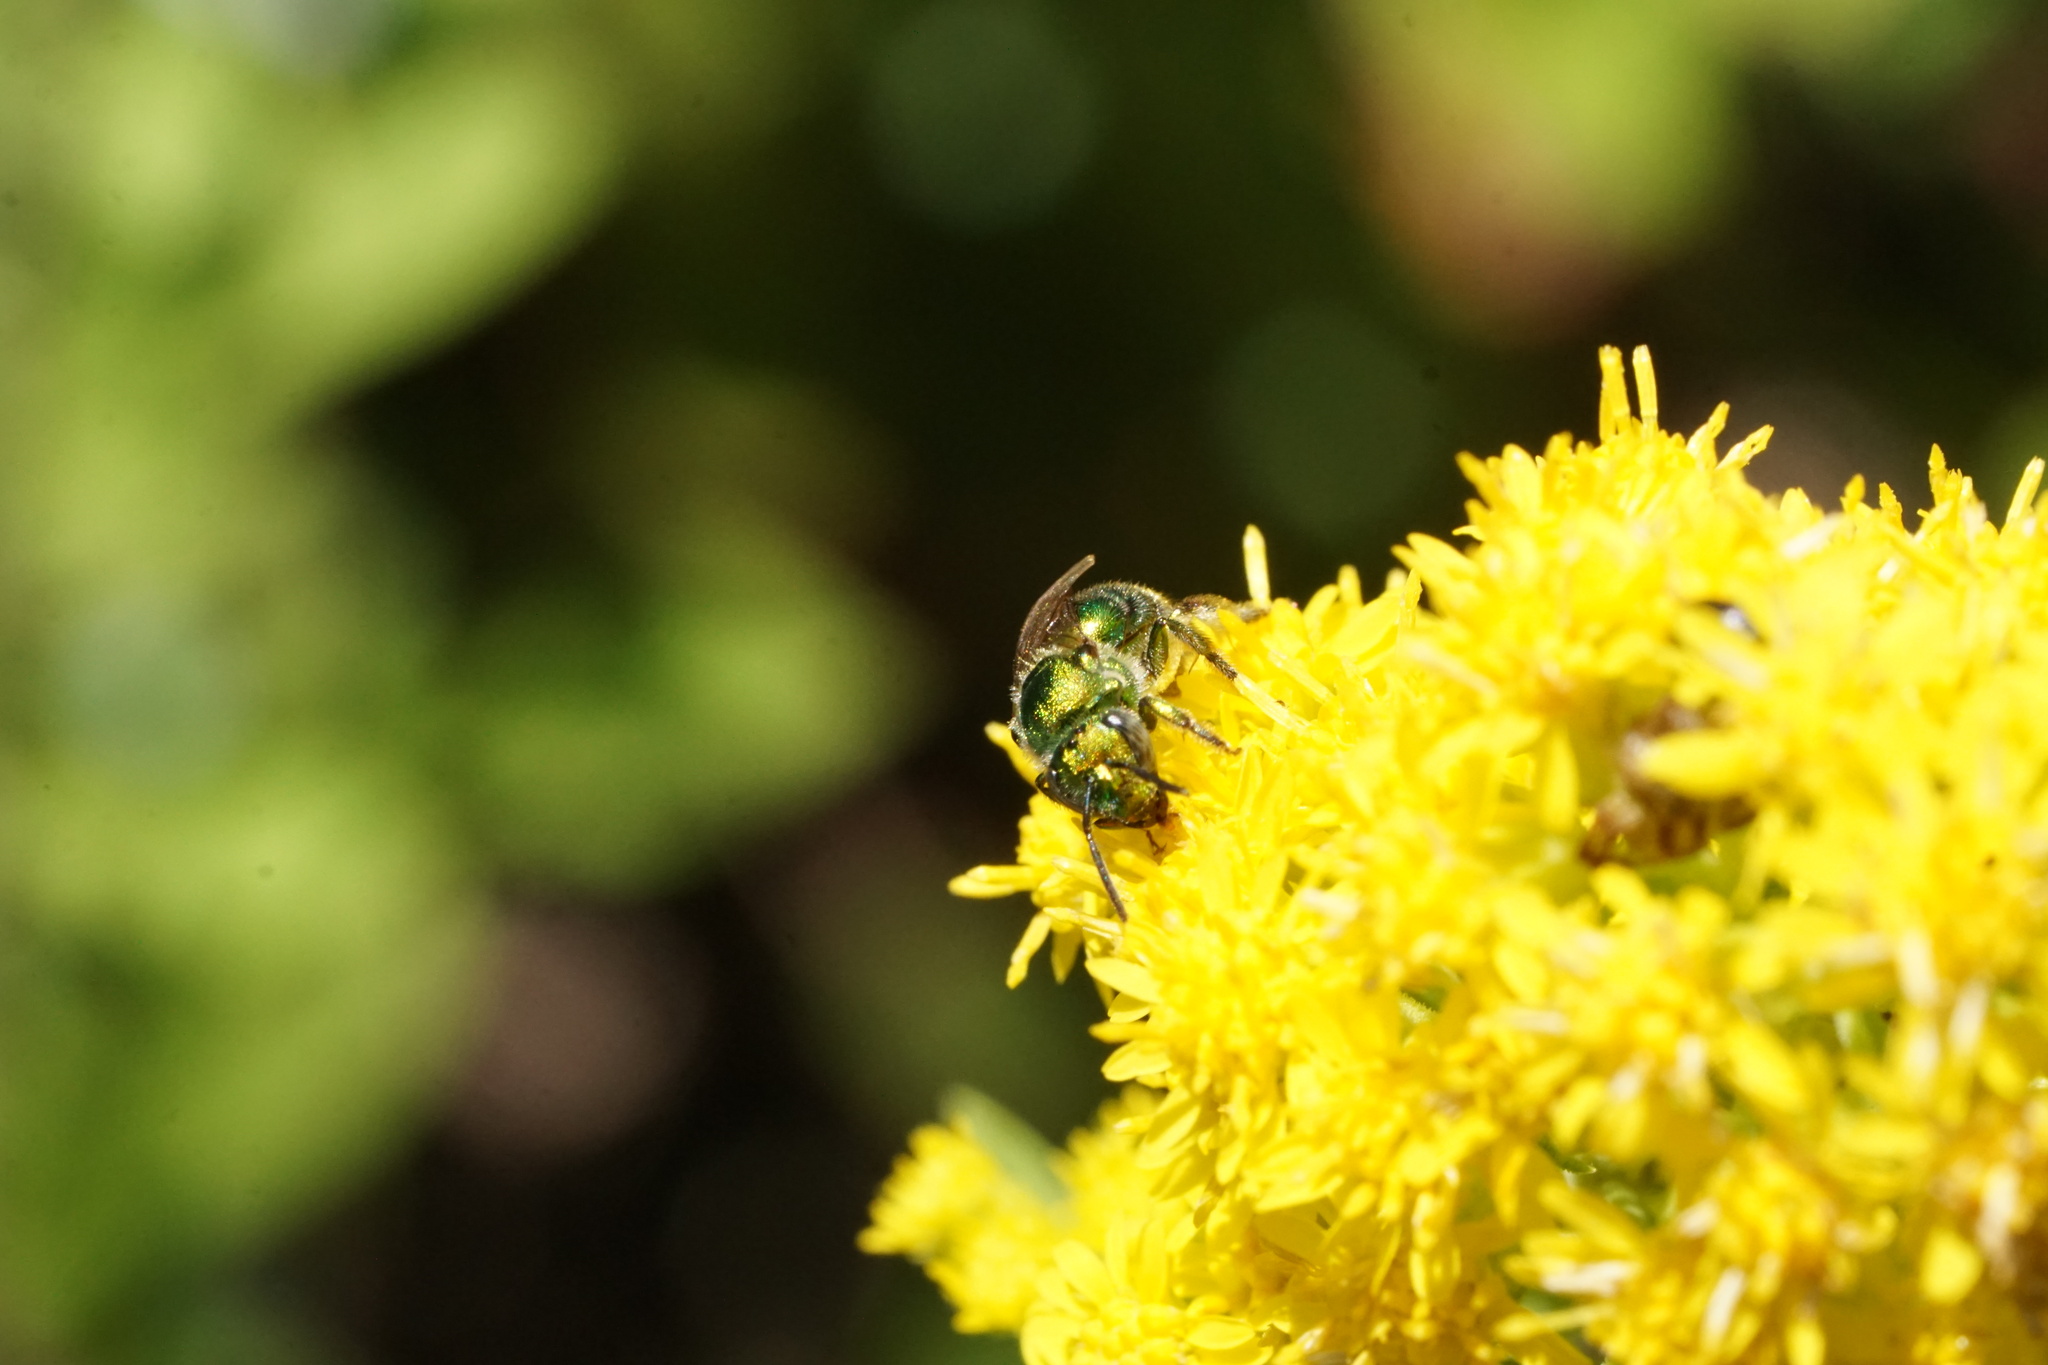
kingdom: Animalia
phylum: Arthropoda
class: Insecta
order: Hymenoptera
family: Halictidae
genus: Augochloropsis
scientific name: Augochloropsis viridula
